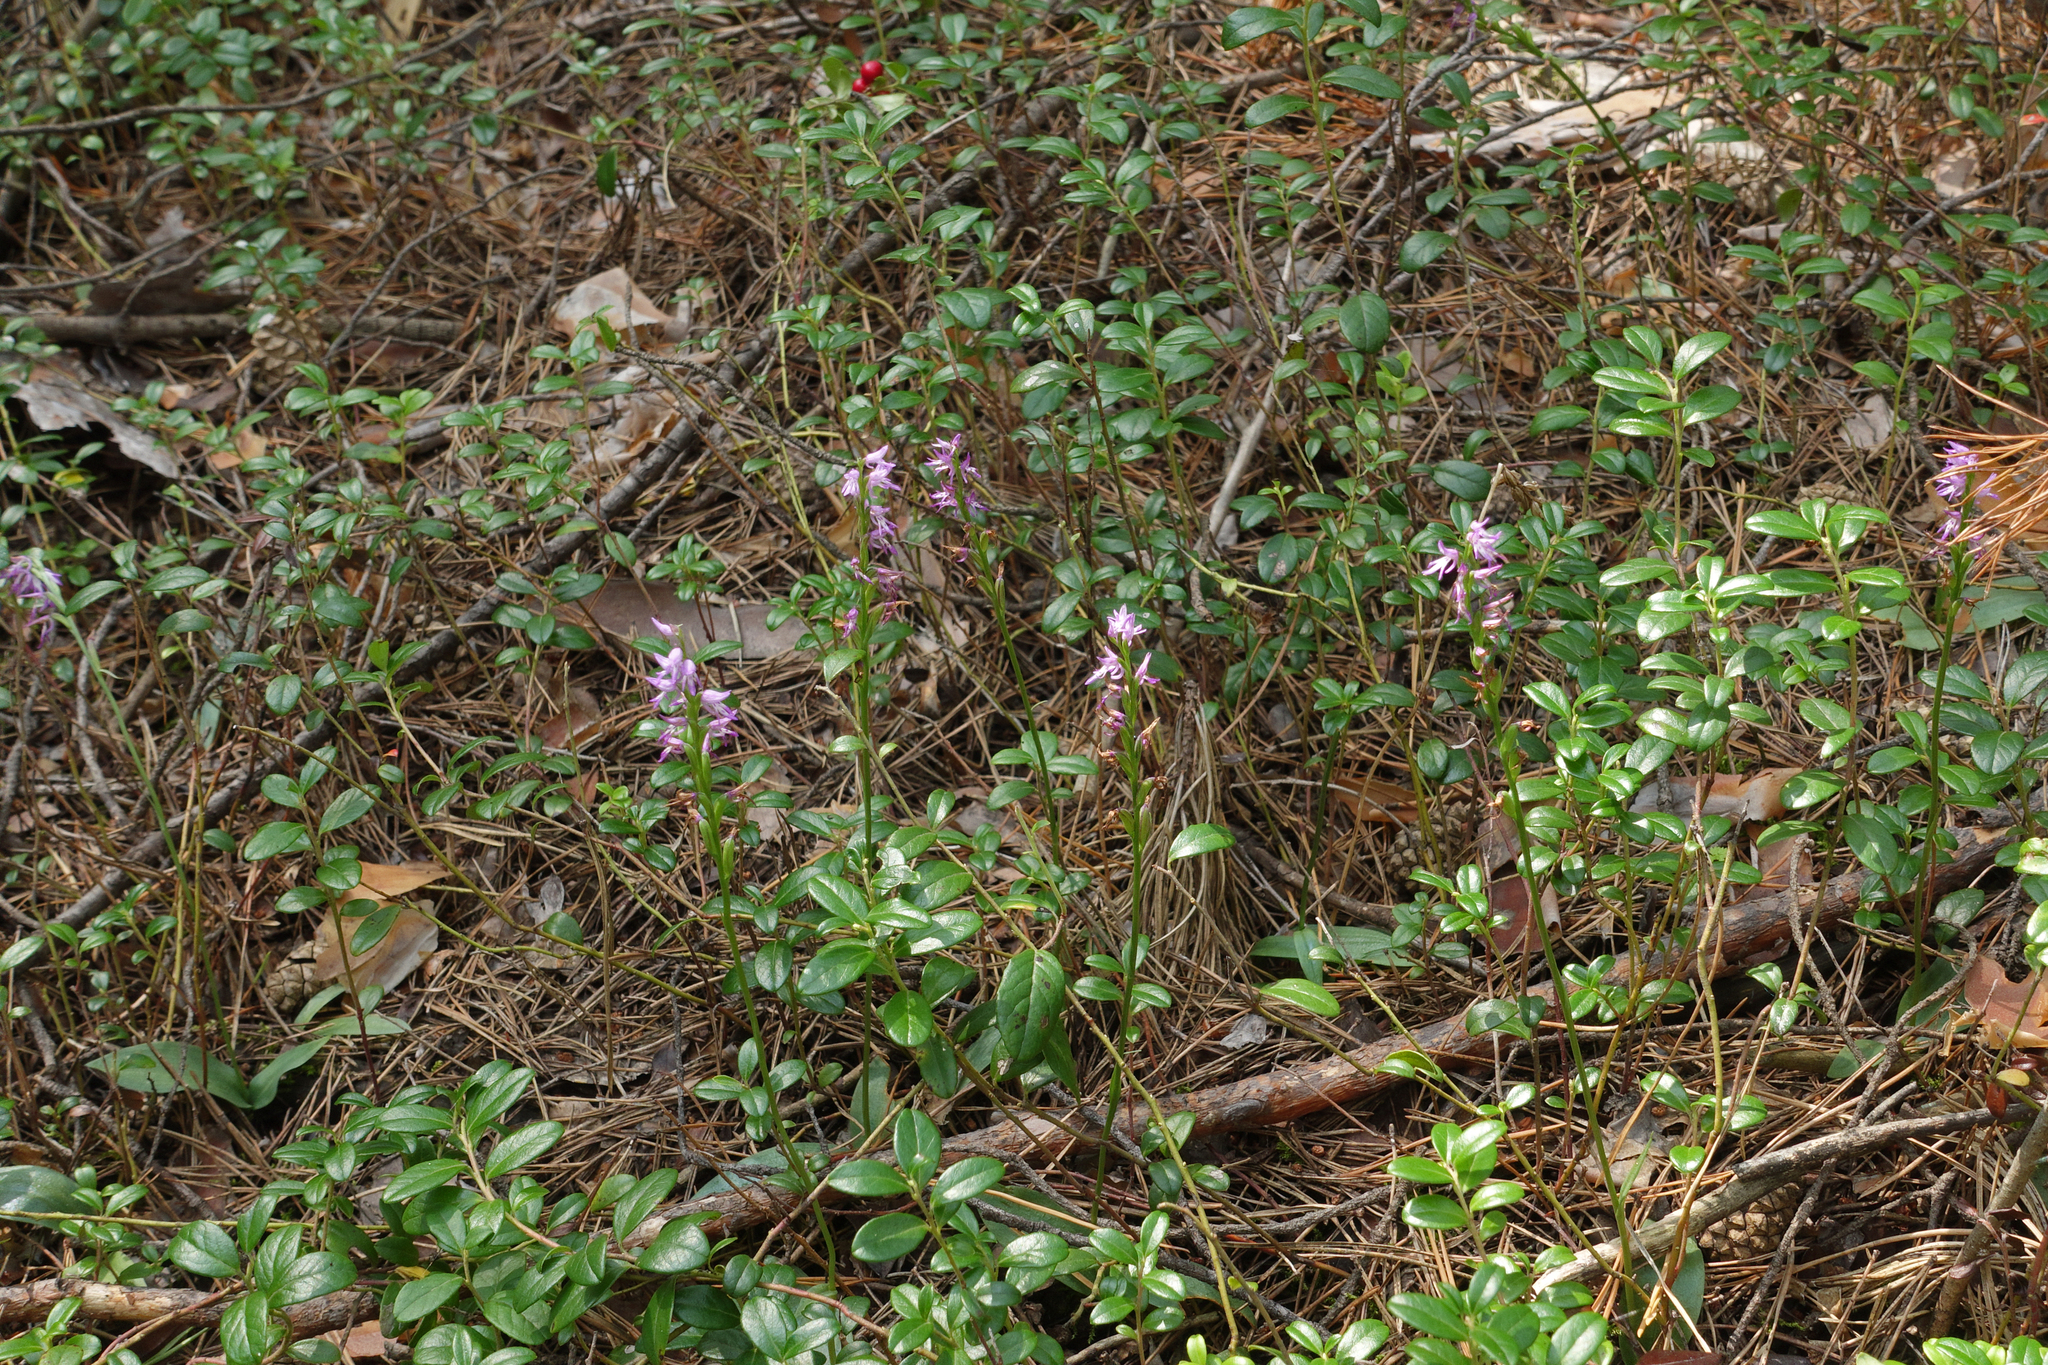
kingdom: Plantae
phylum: Tracheophyta
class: Liliopsida
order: Asparagales
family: Orchidaceae
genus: Hemipilia
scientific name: Hemipilia cucullata
